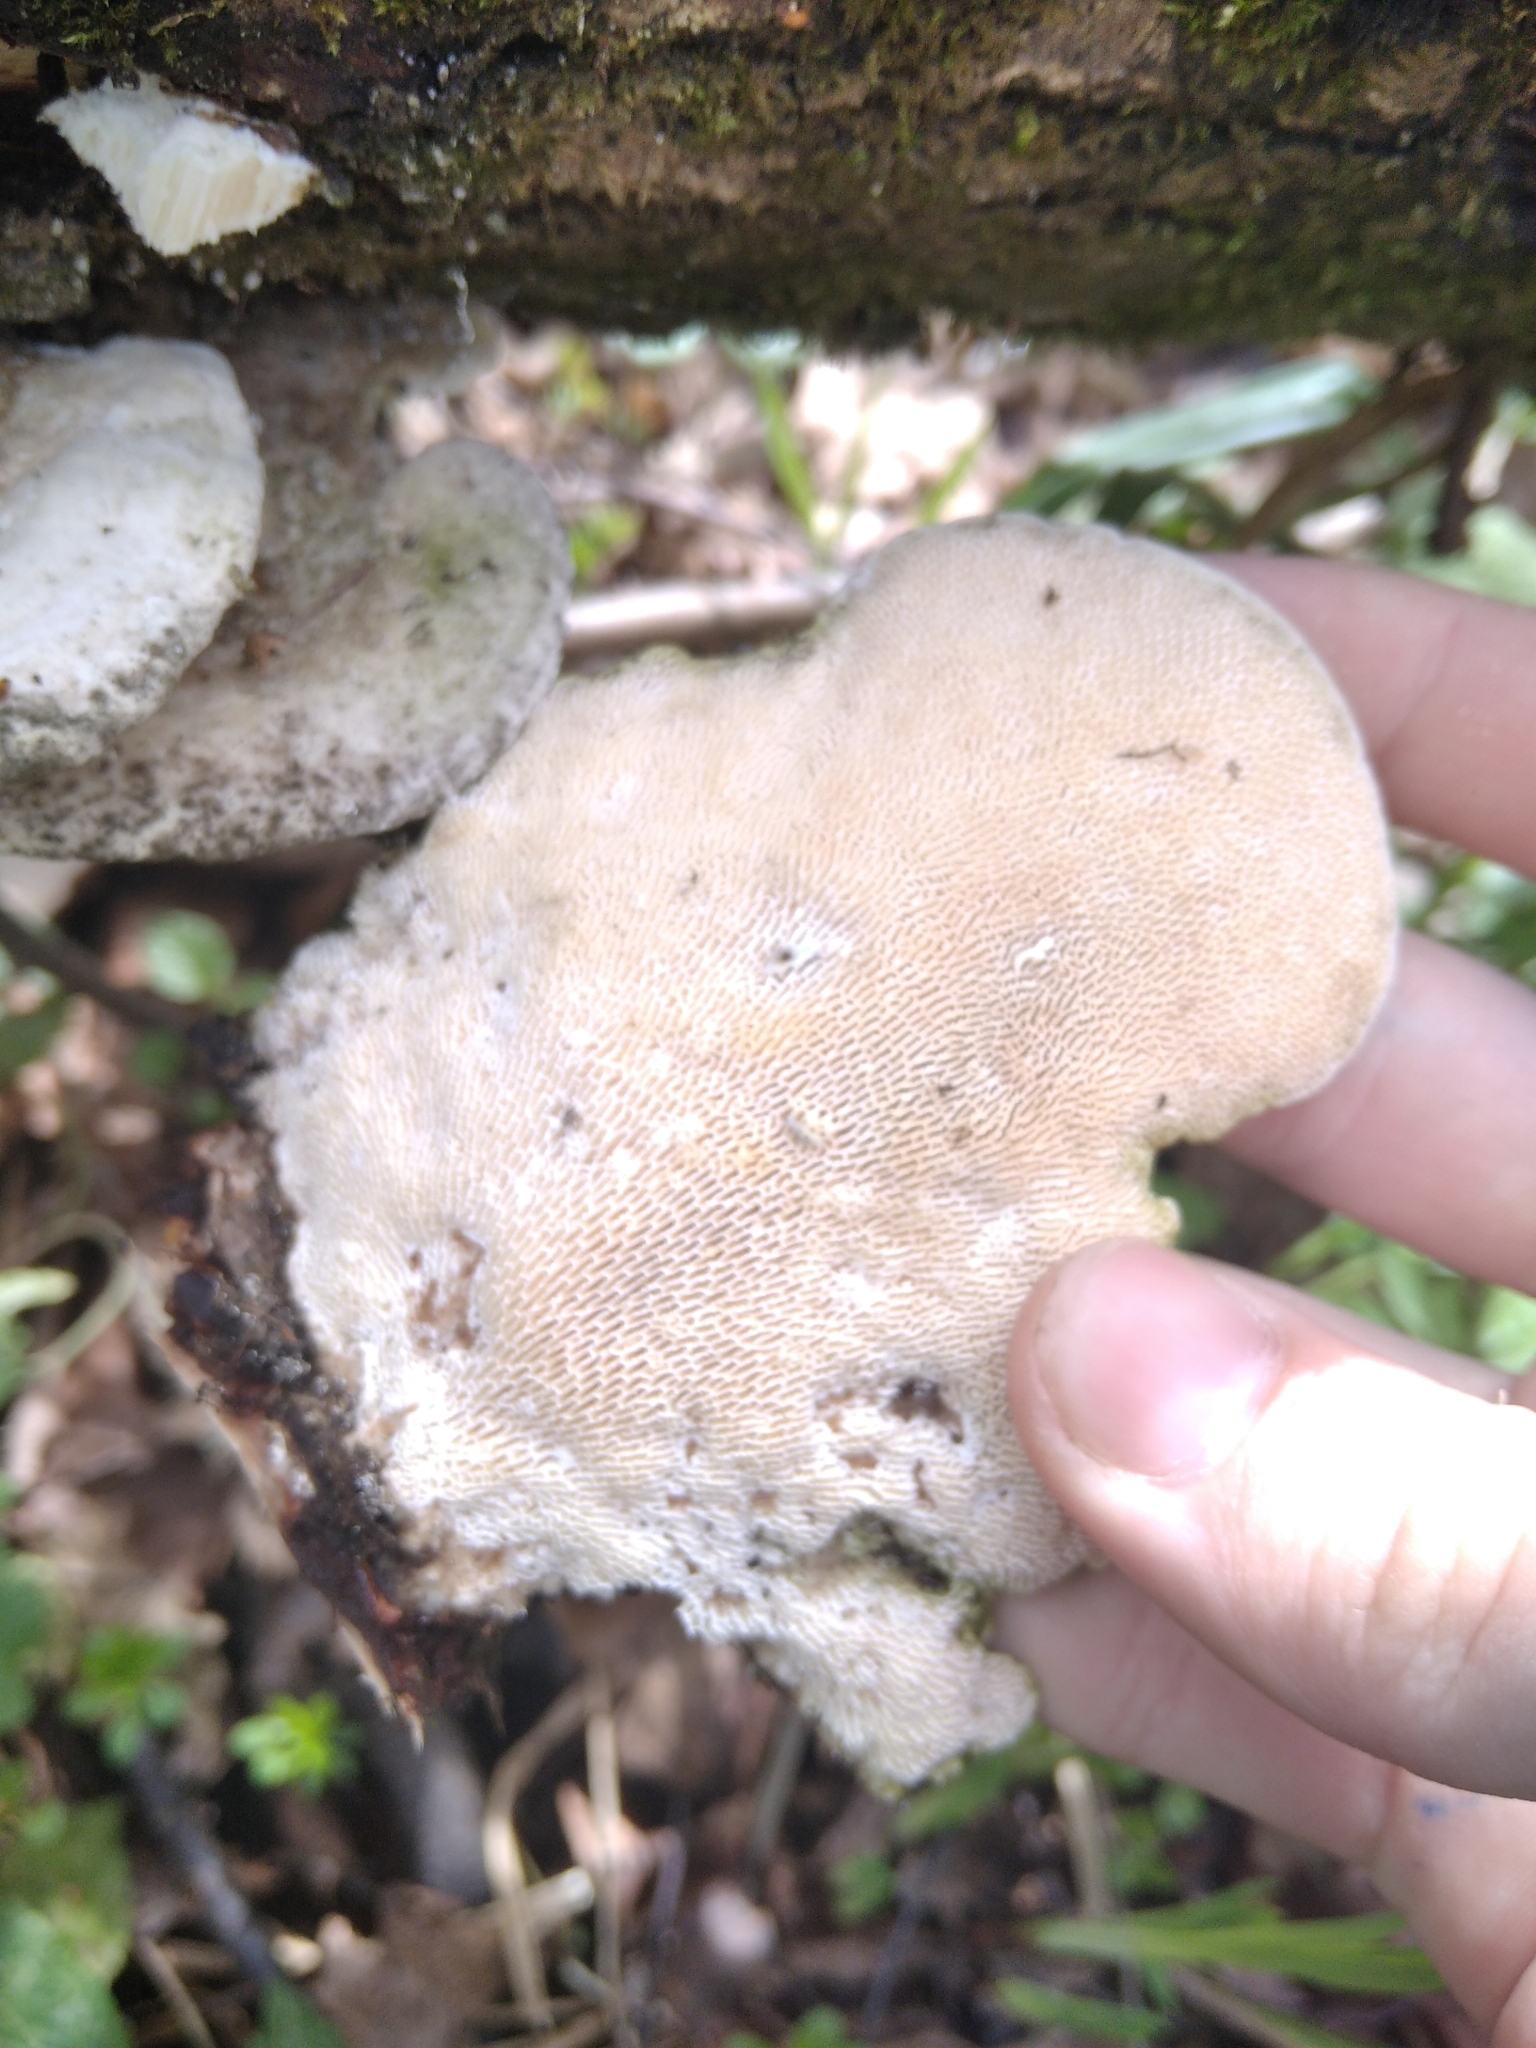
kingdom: Fungi
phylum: Basidiomycota
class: Agaricomycetes
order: Polyporales
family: Polyporaceae
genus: Trametes
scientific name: Trametes gibbosa
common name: Lumpy bracket
